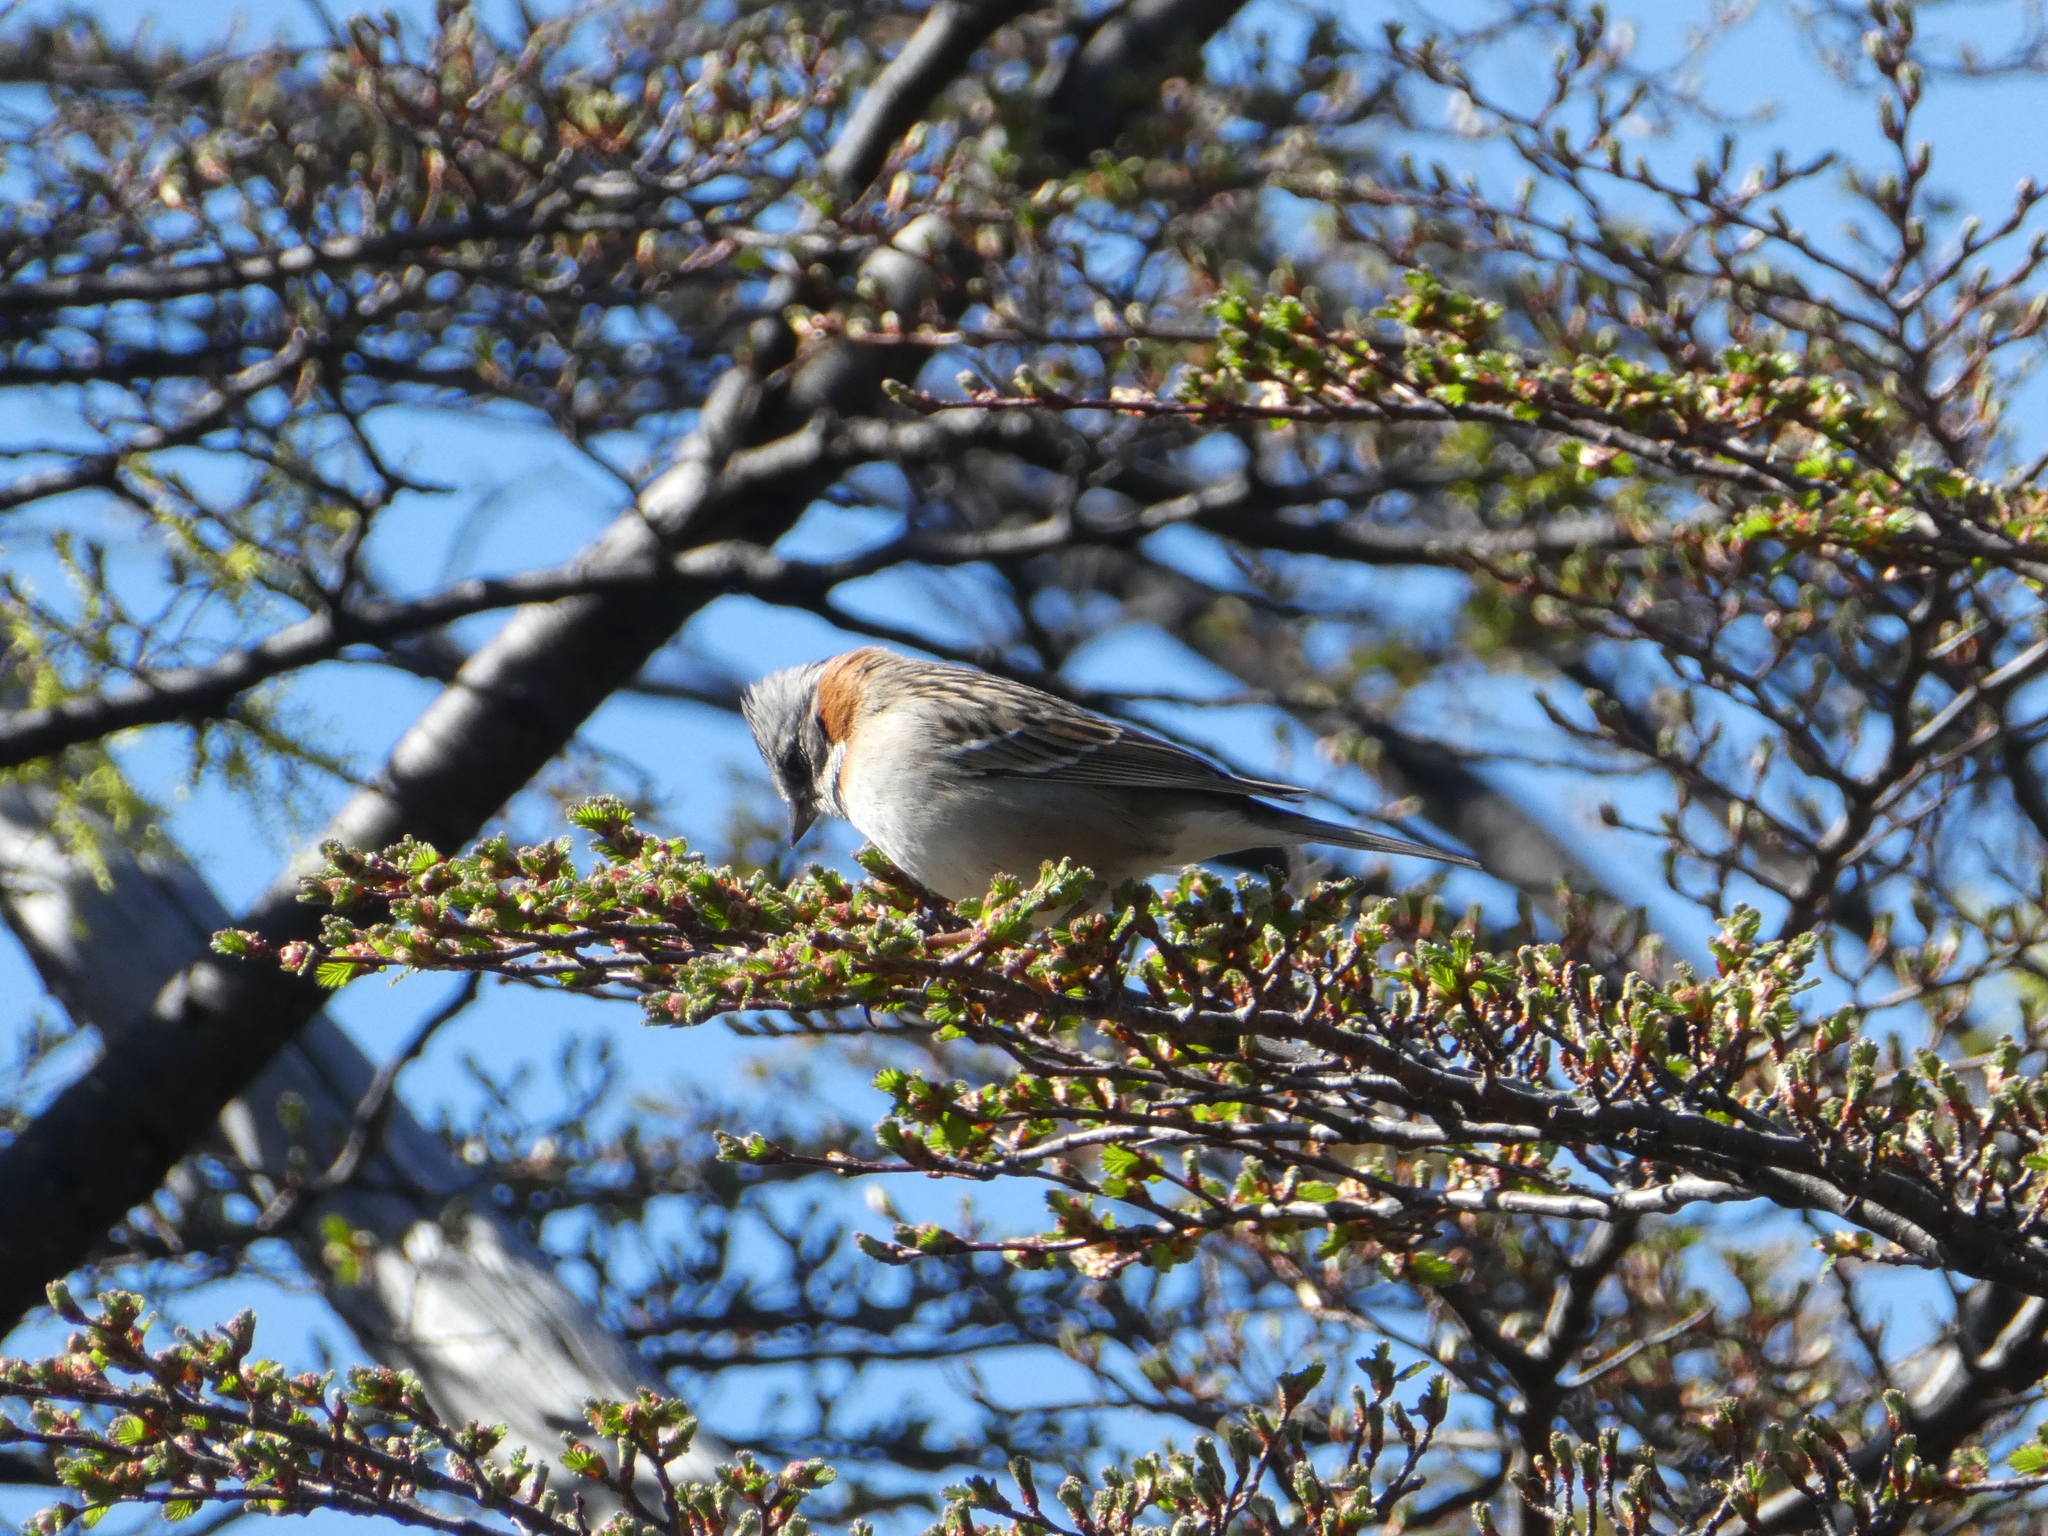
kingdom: Animalia
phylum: Chordata
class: Aves
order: Passeriformes
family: Passerellidae
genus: Zonotrichia
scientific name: Zonotrichia capensis
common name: Rufous-collared sparrow
